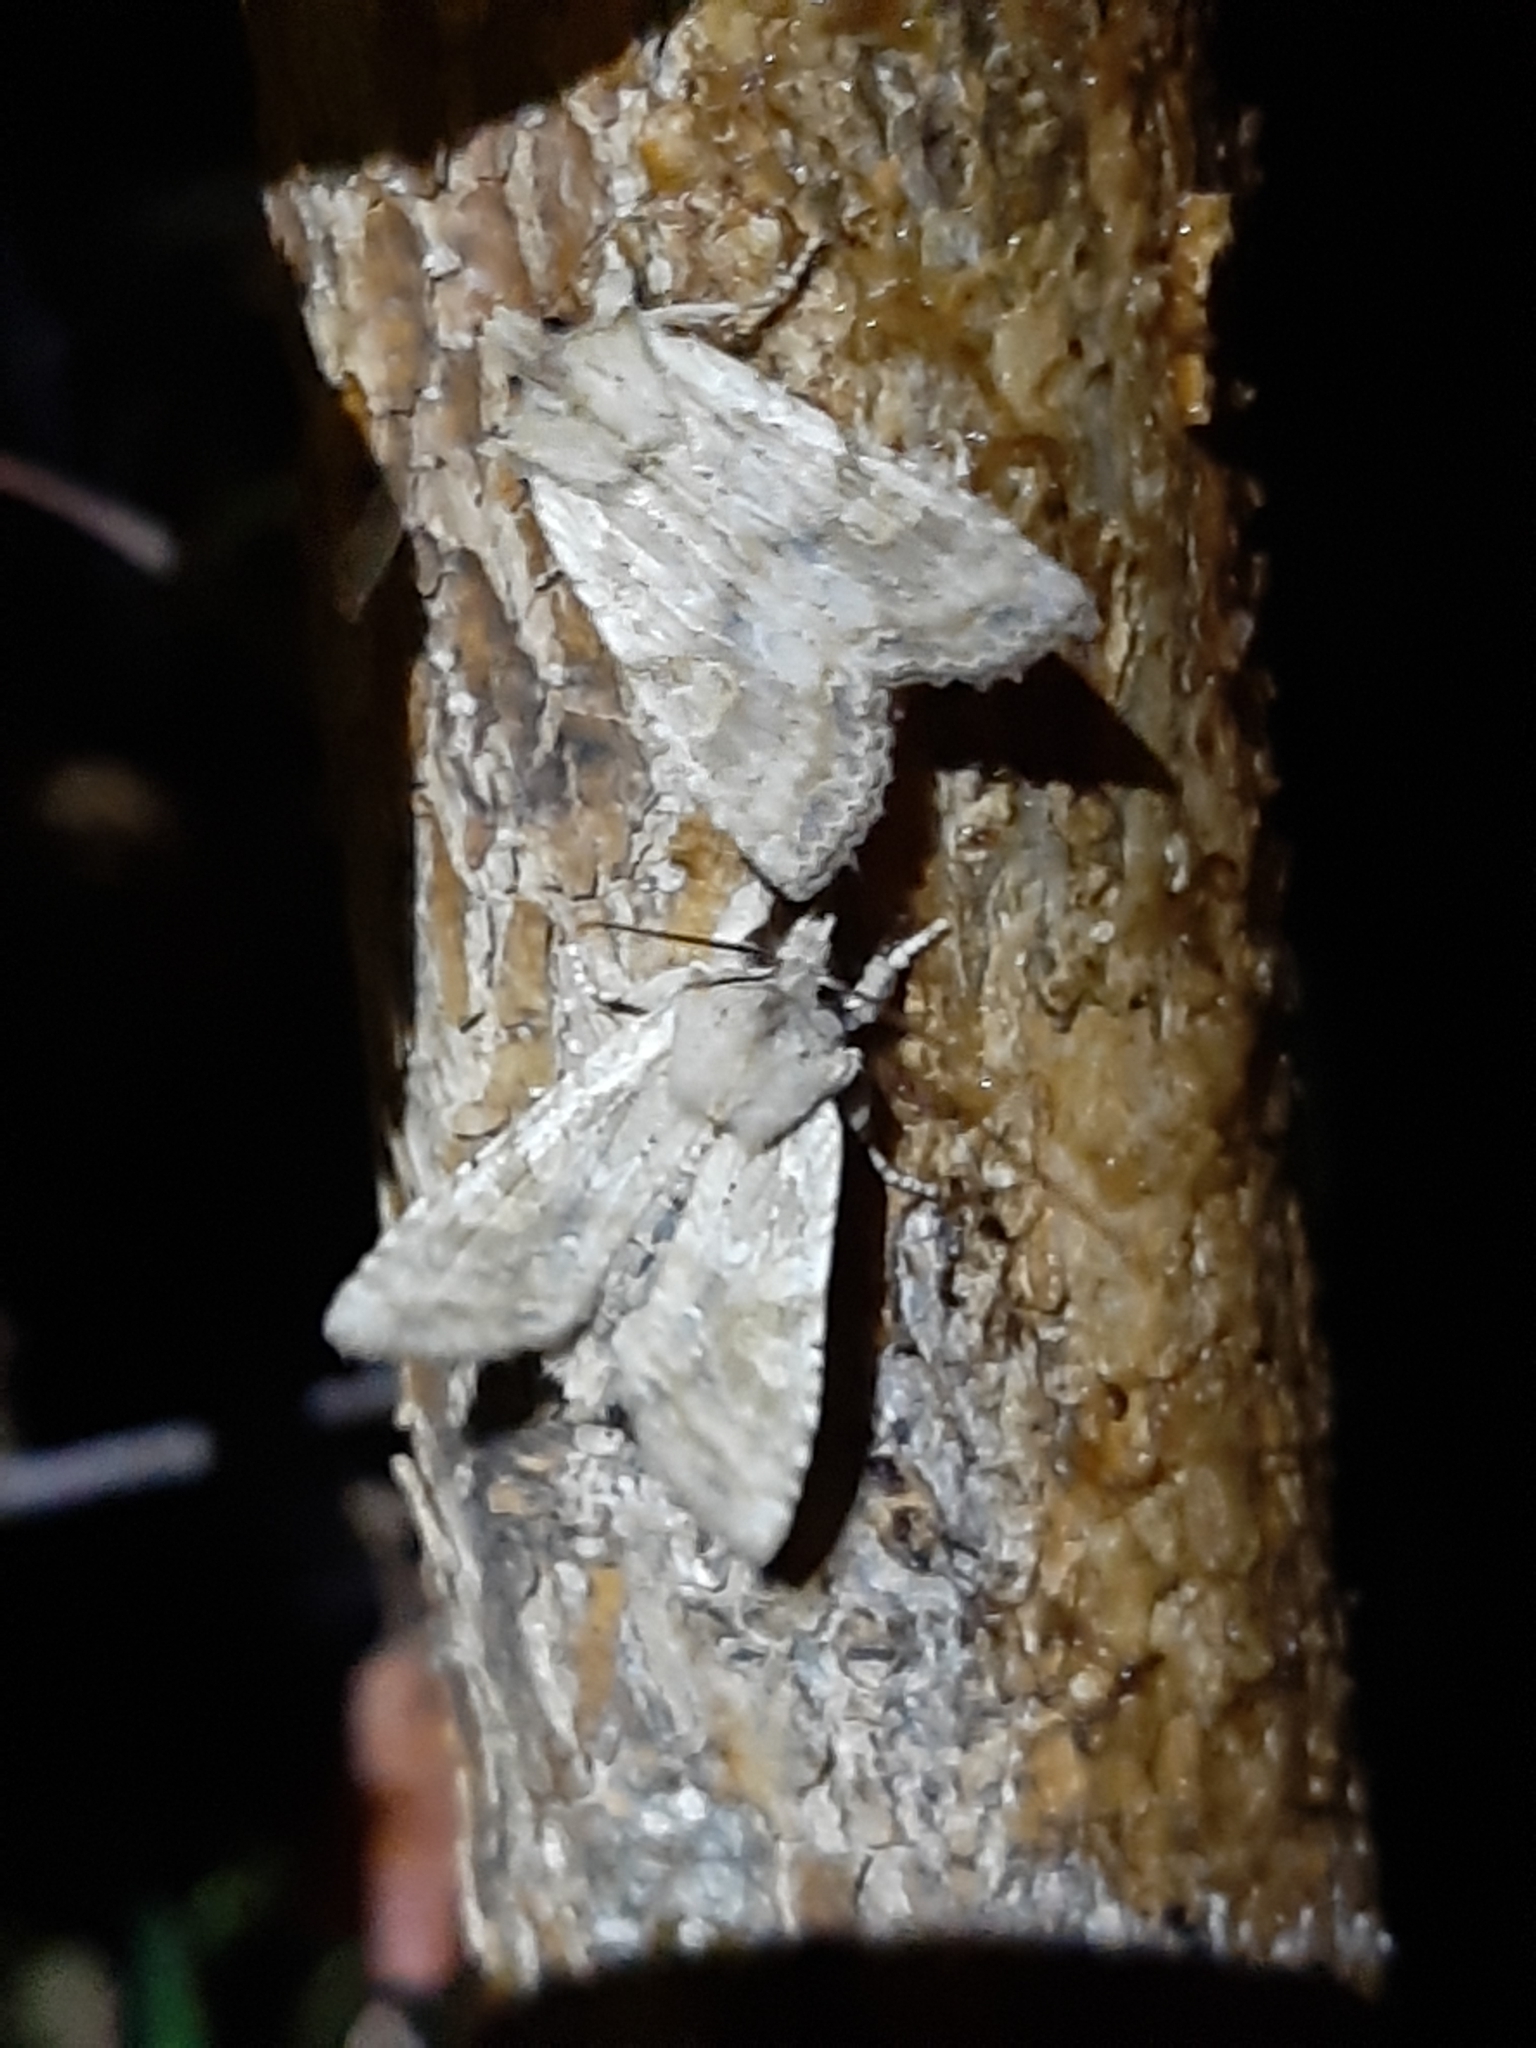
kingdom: Animalia
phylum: Arthropoda
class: Insecta
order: Lepidoptera
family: Noctuidae
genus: Lithophane
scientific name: Lithophane bethunei
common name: Bethune's pinion moth
